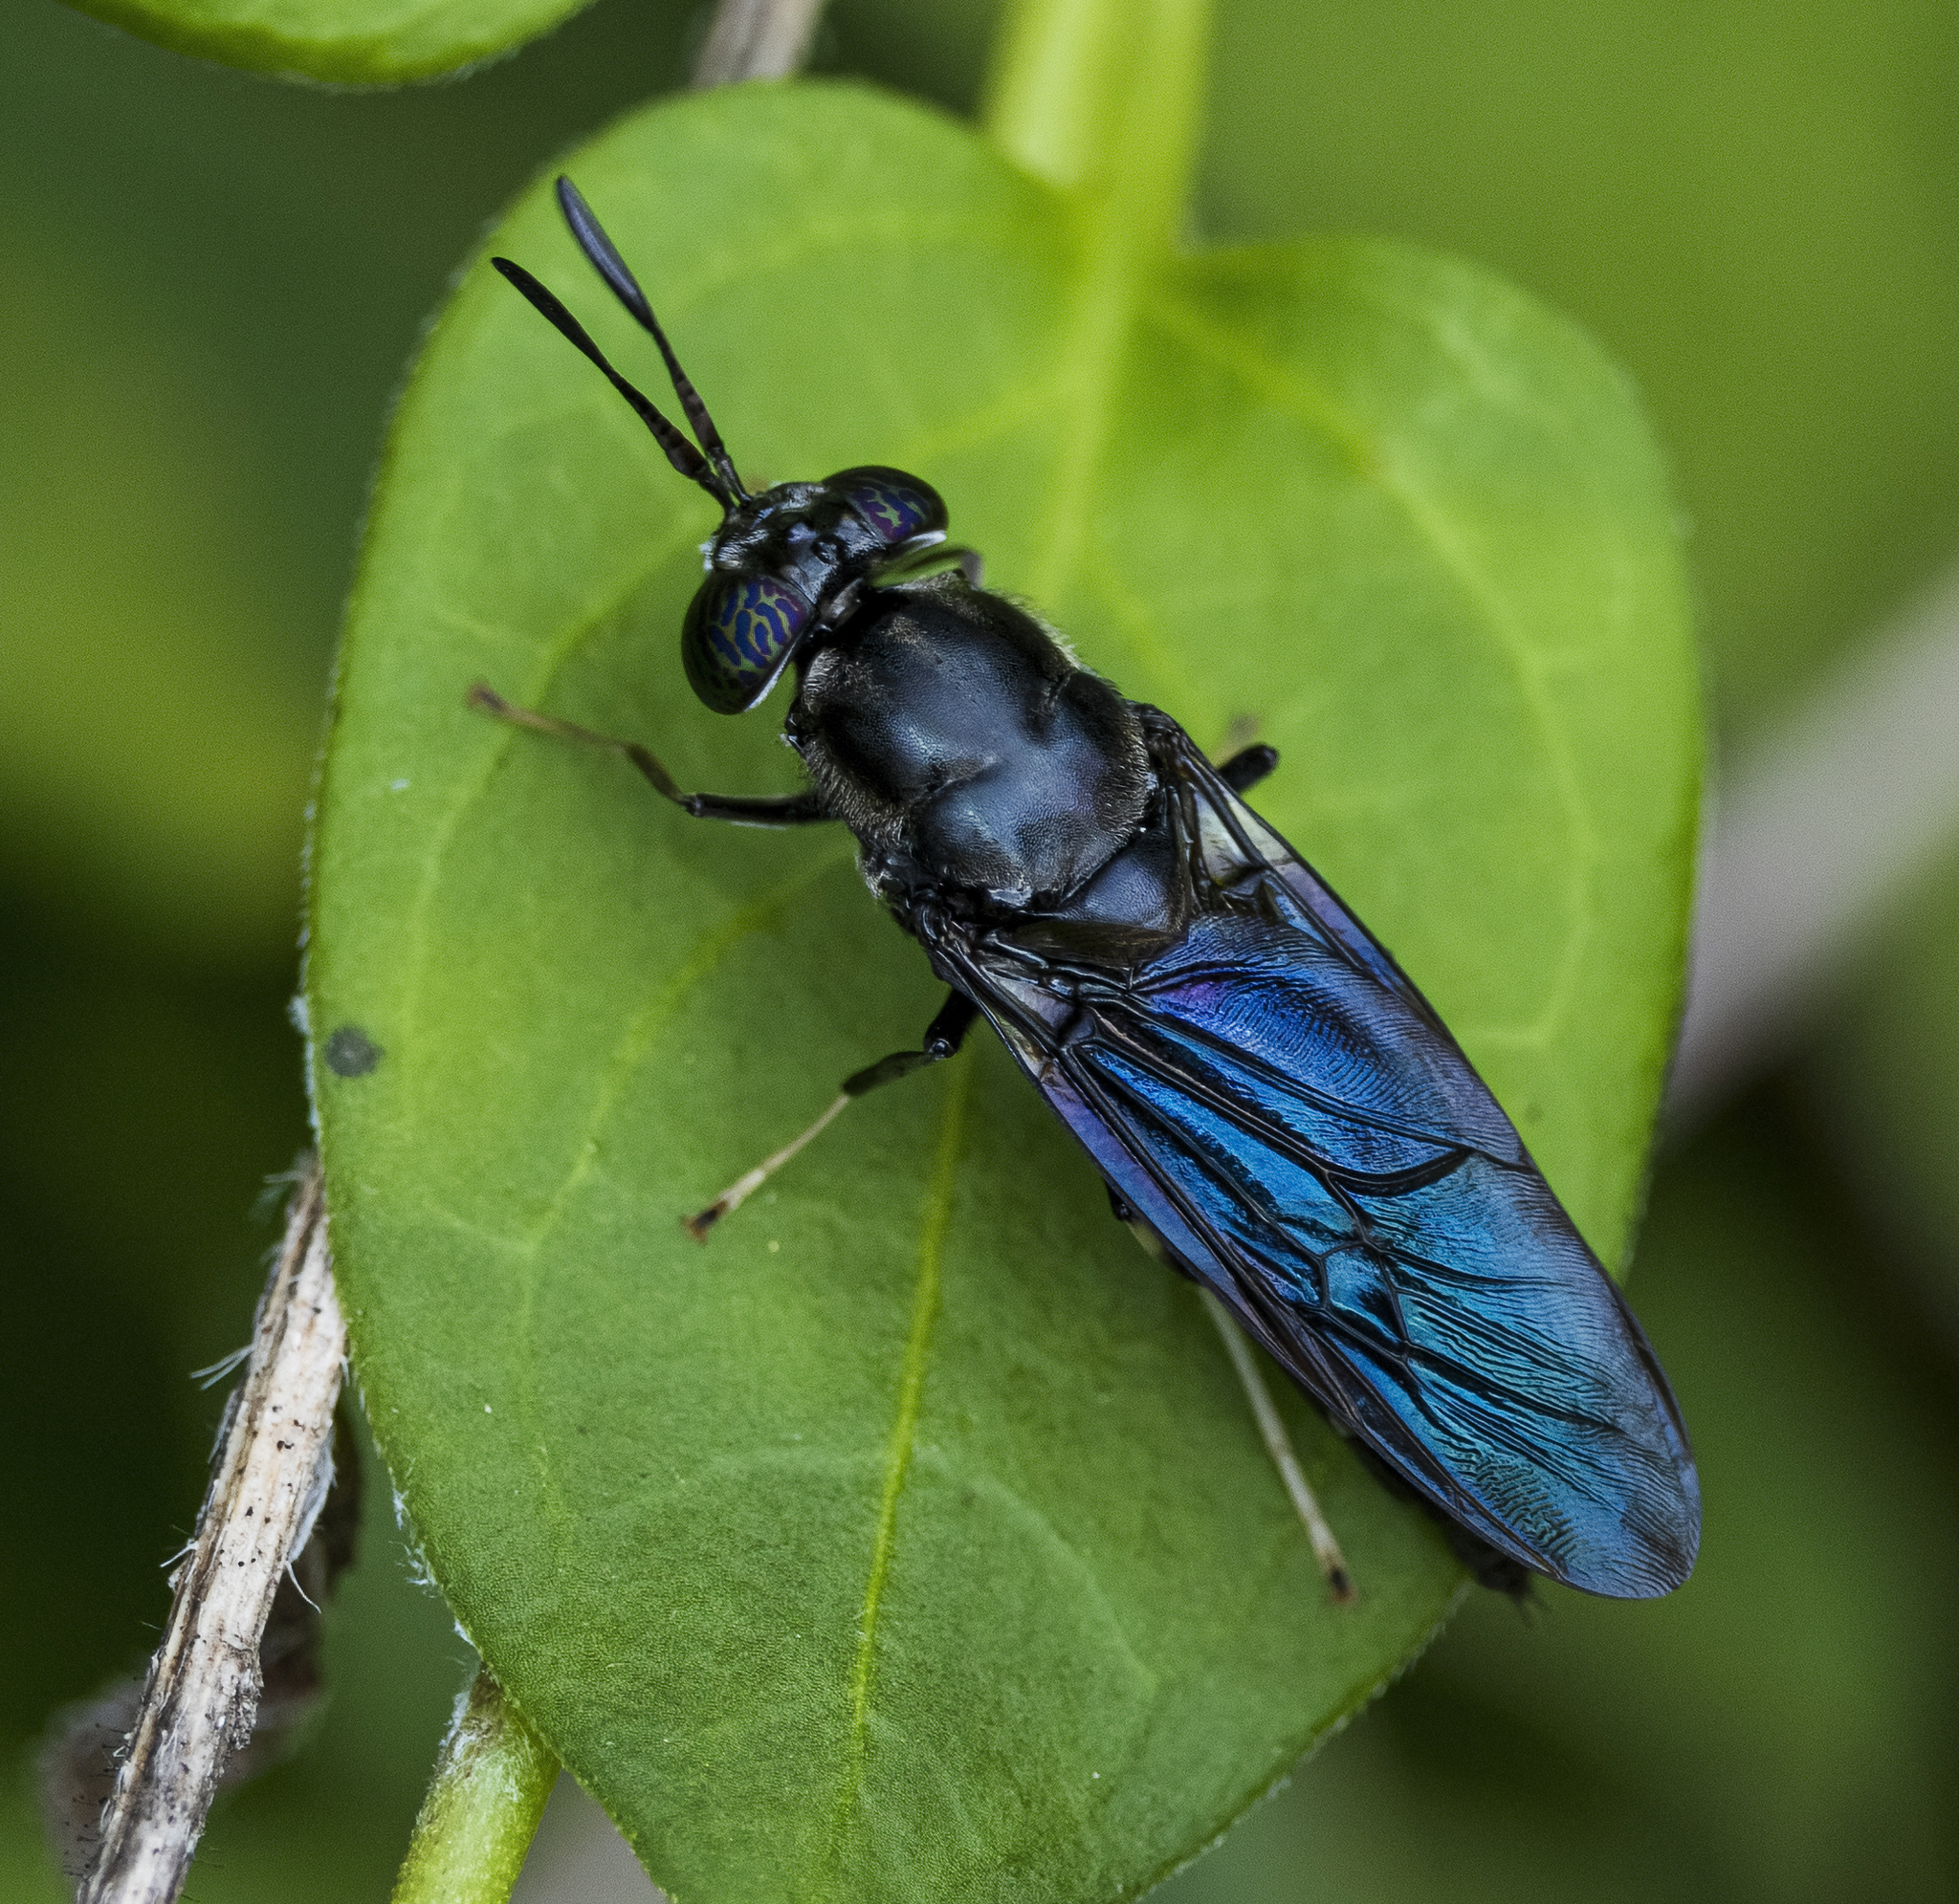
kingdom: Animalia
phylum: Arthropoda
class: Insecta
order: Diptera
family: Stratiomyidae
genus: Hermetia
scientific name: Hermetia illucens
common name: Black soldier fly
